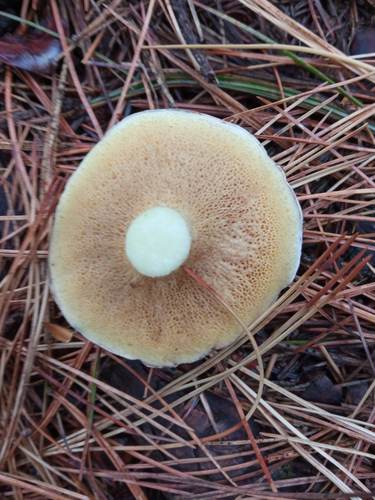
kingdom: Fungi
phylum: Basidiomycota
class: Agaricomycetes
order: Boletales
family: Suillaceae
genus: Suillus
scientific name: Suillus placidus
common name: Slippery white bolete
